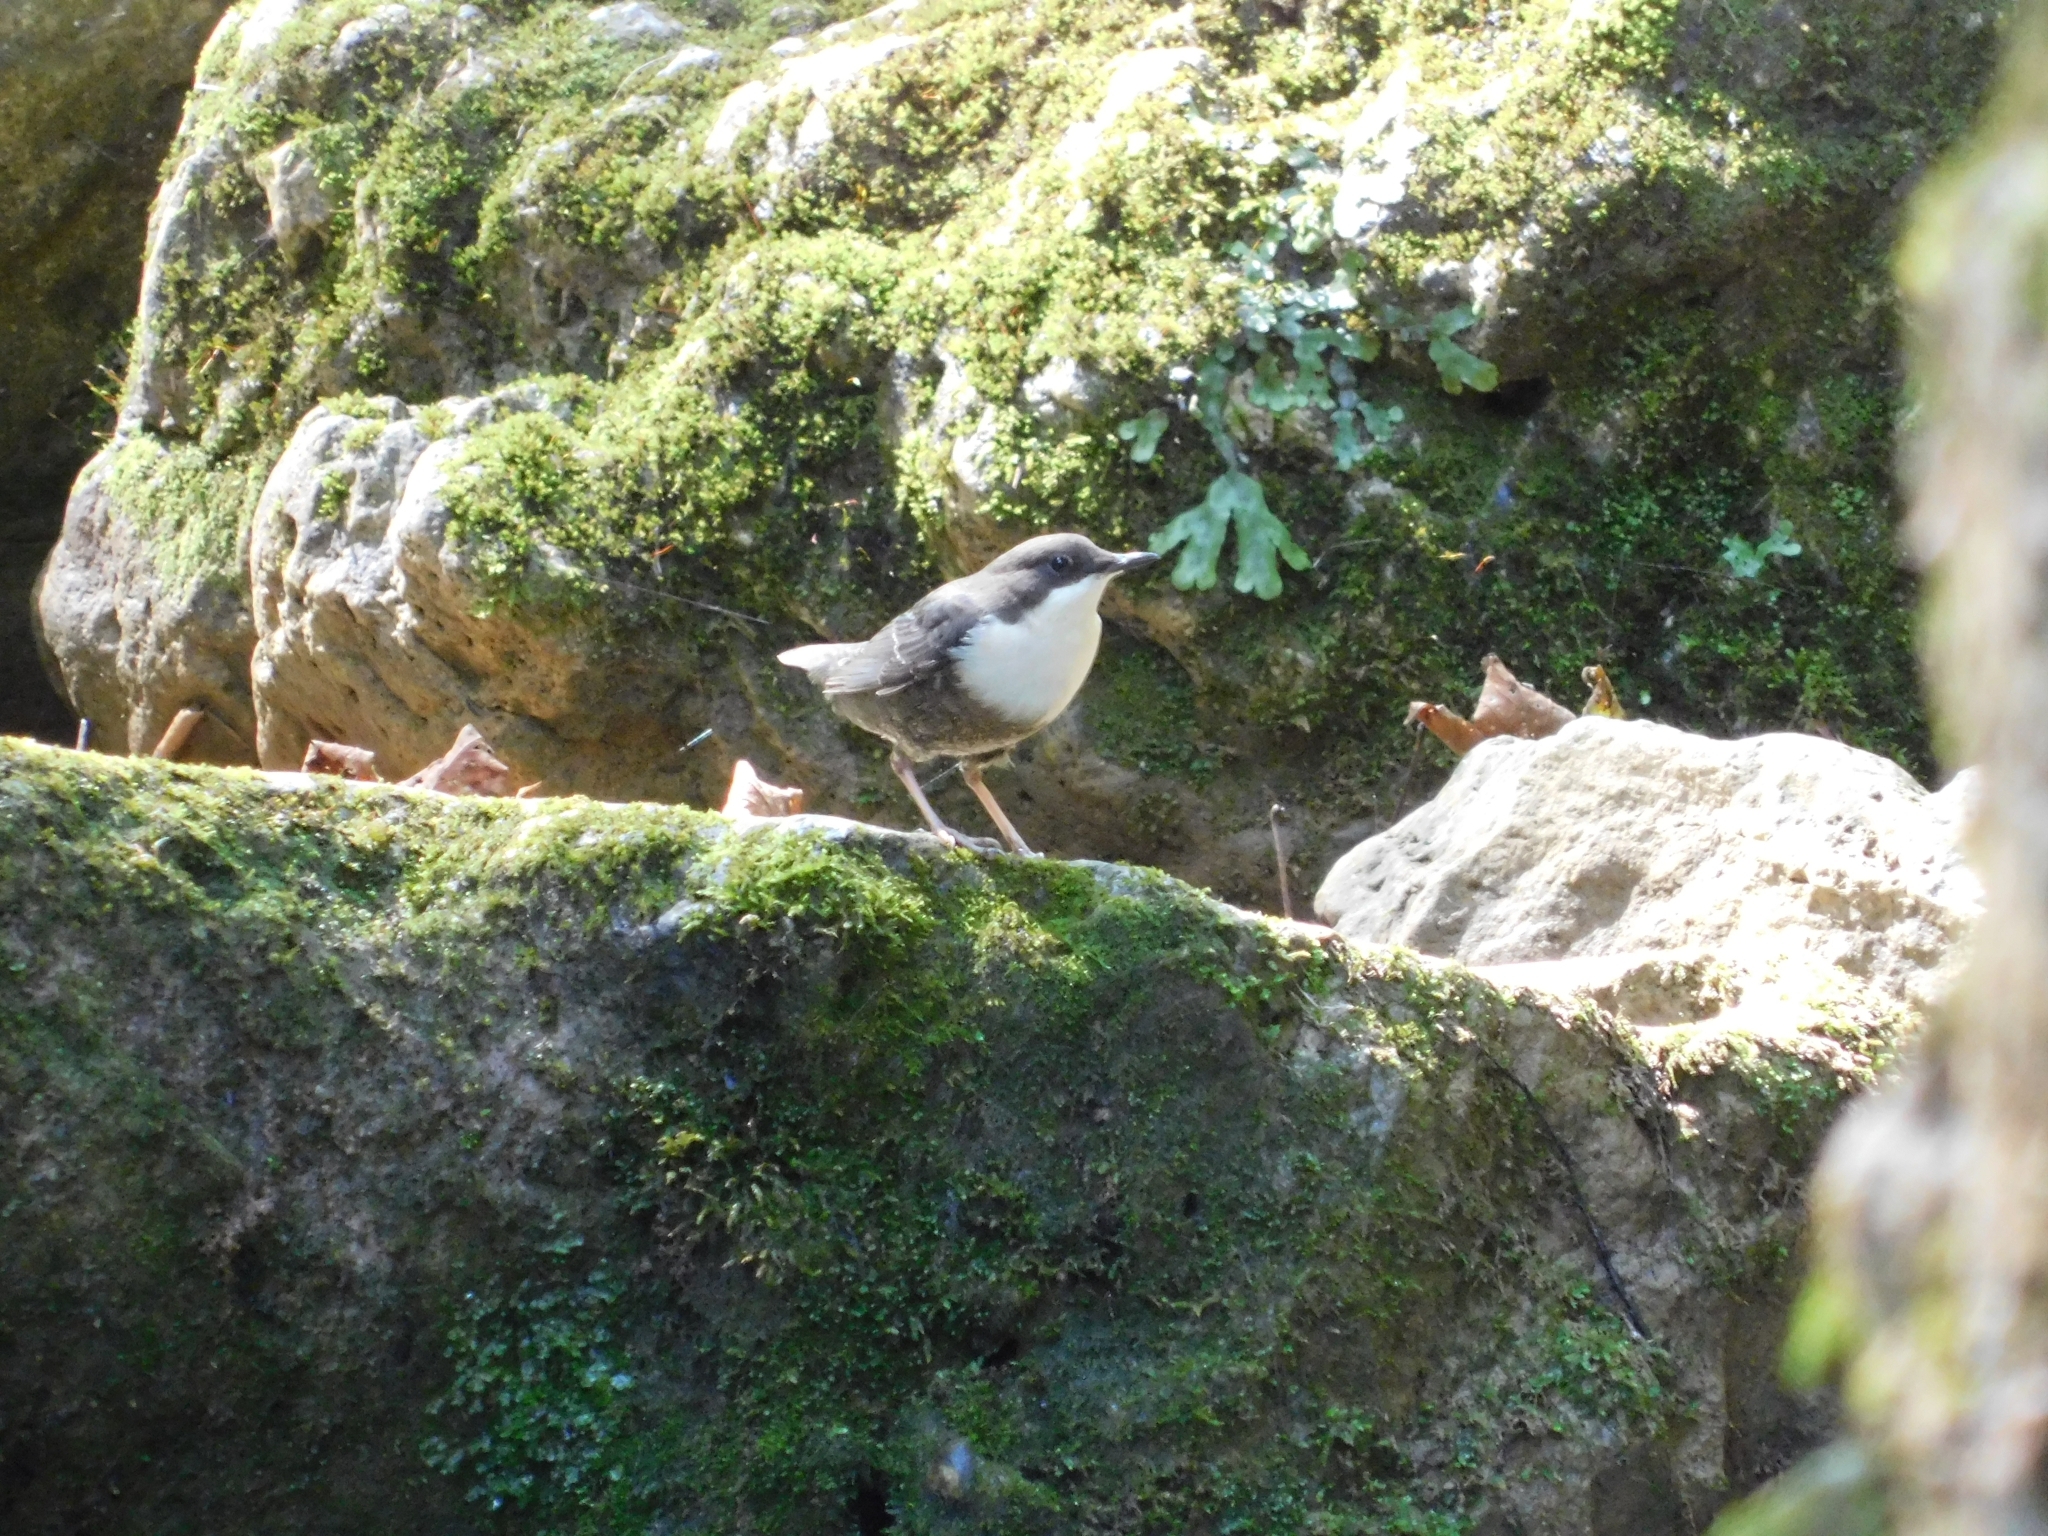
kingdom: Animalia
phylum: Chordata
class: Aves
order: Passeriformes
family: Cinclidae
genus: Cinclus
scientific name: Cinclus cinclus
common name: White-throated dipper
